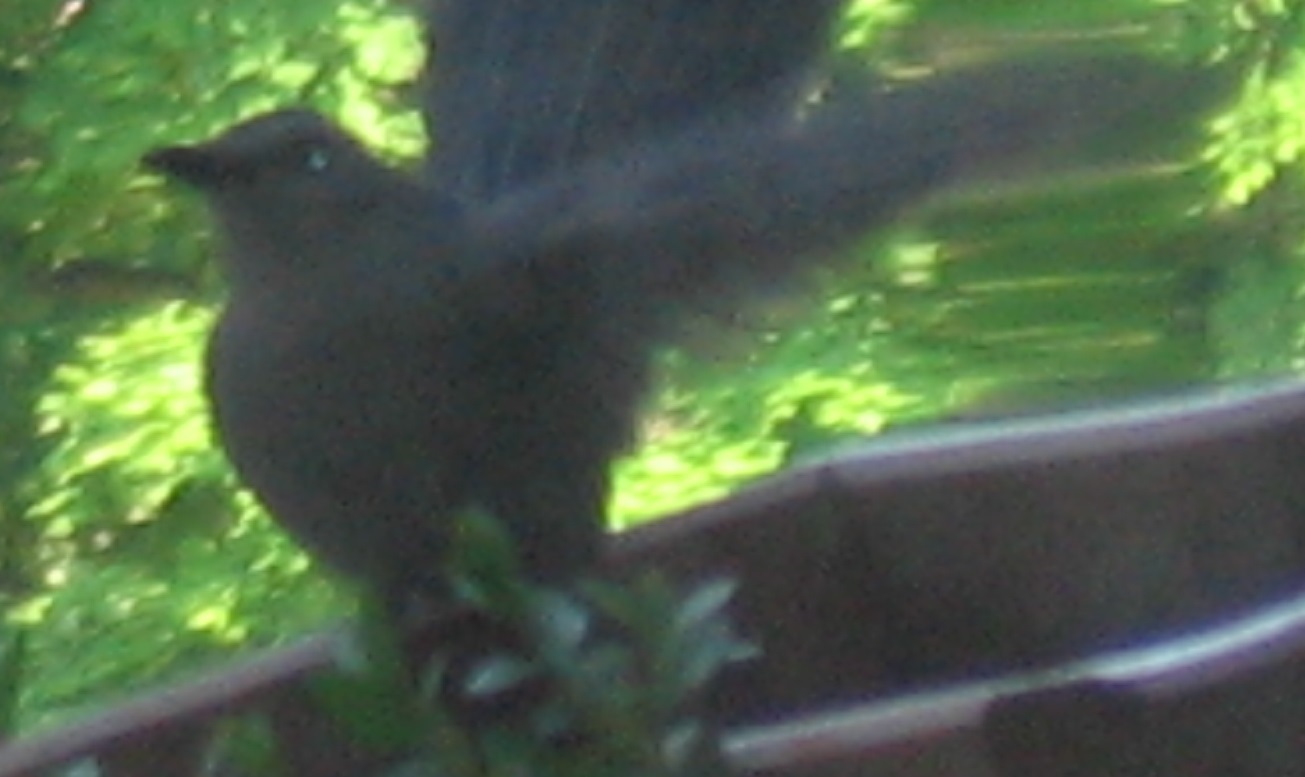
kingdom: Animalia
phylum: Chordata
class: Aves
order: Passeriformes
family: Mimidae
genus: Dumetella
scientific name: Dumetella carolinensis
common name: Gray catbird
